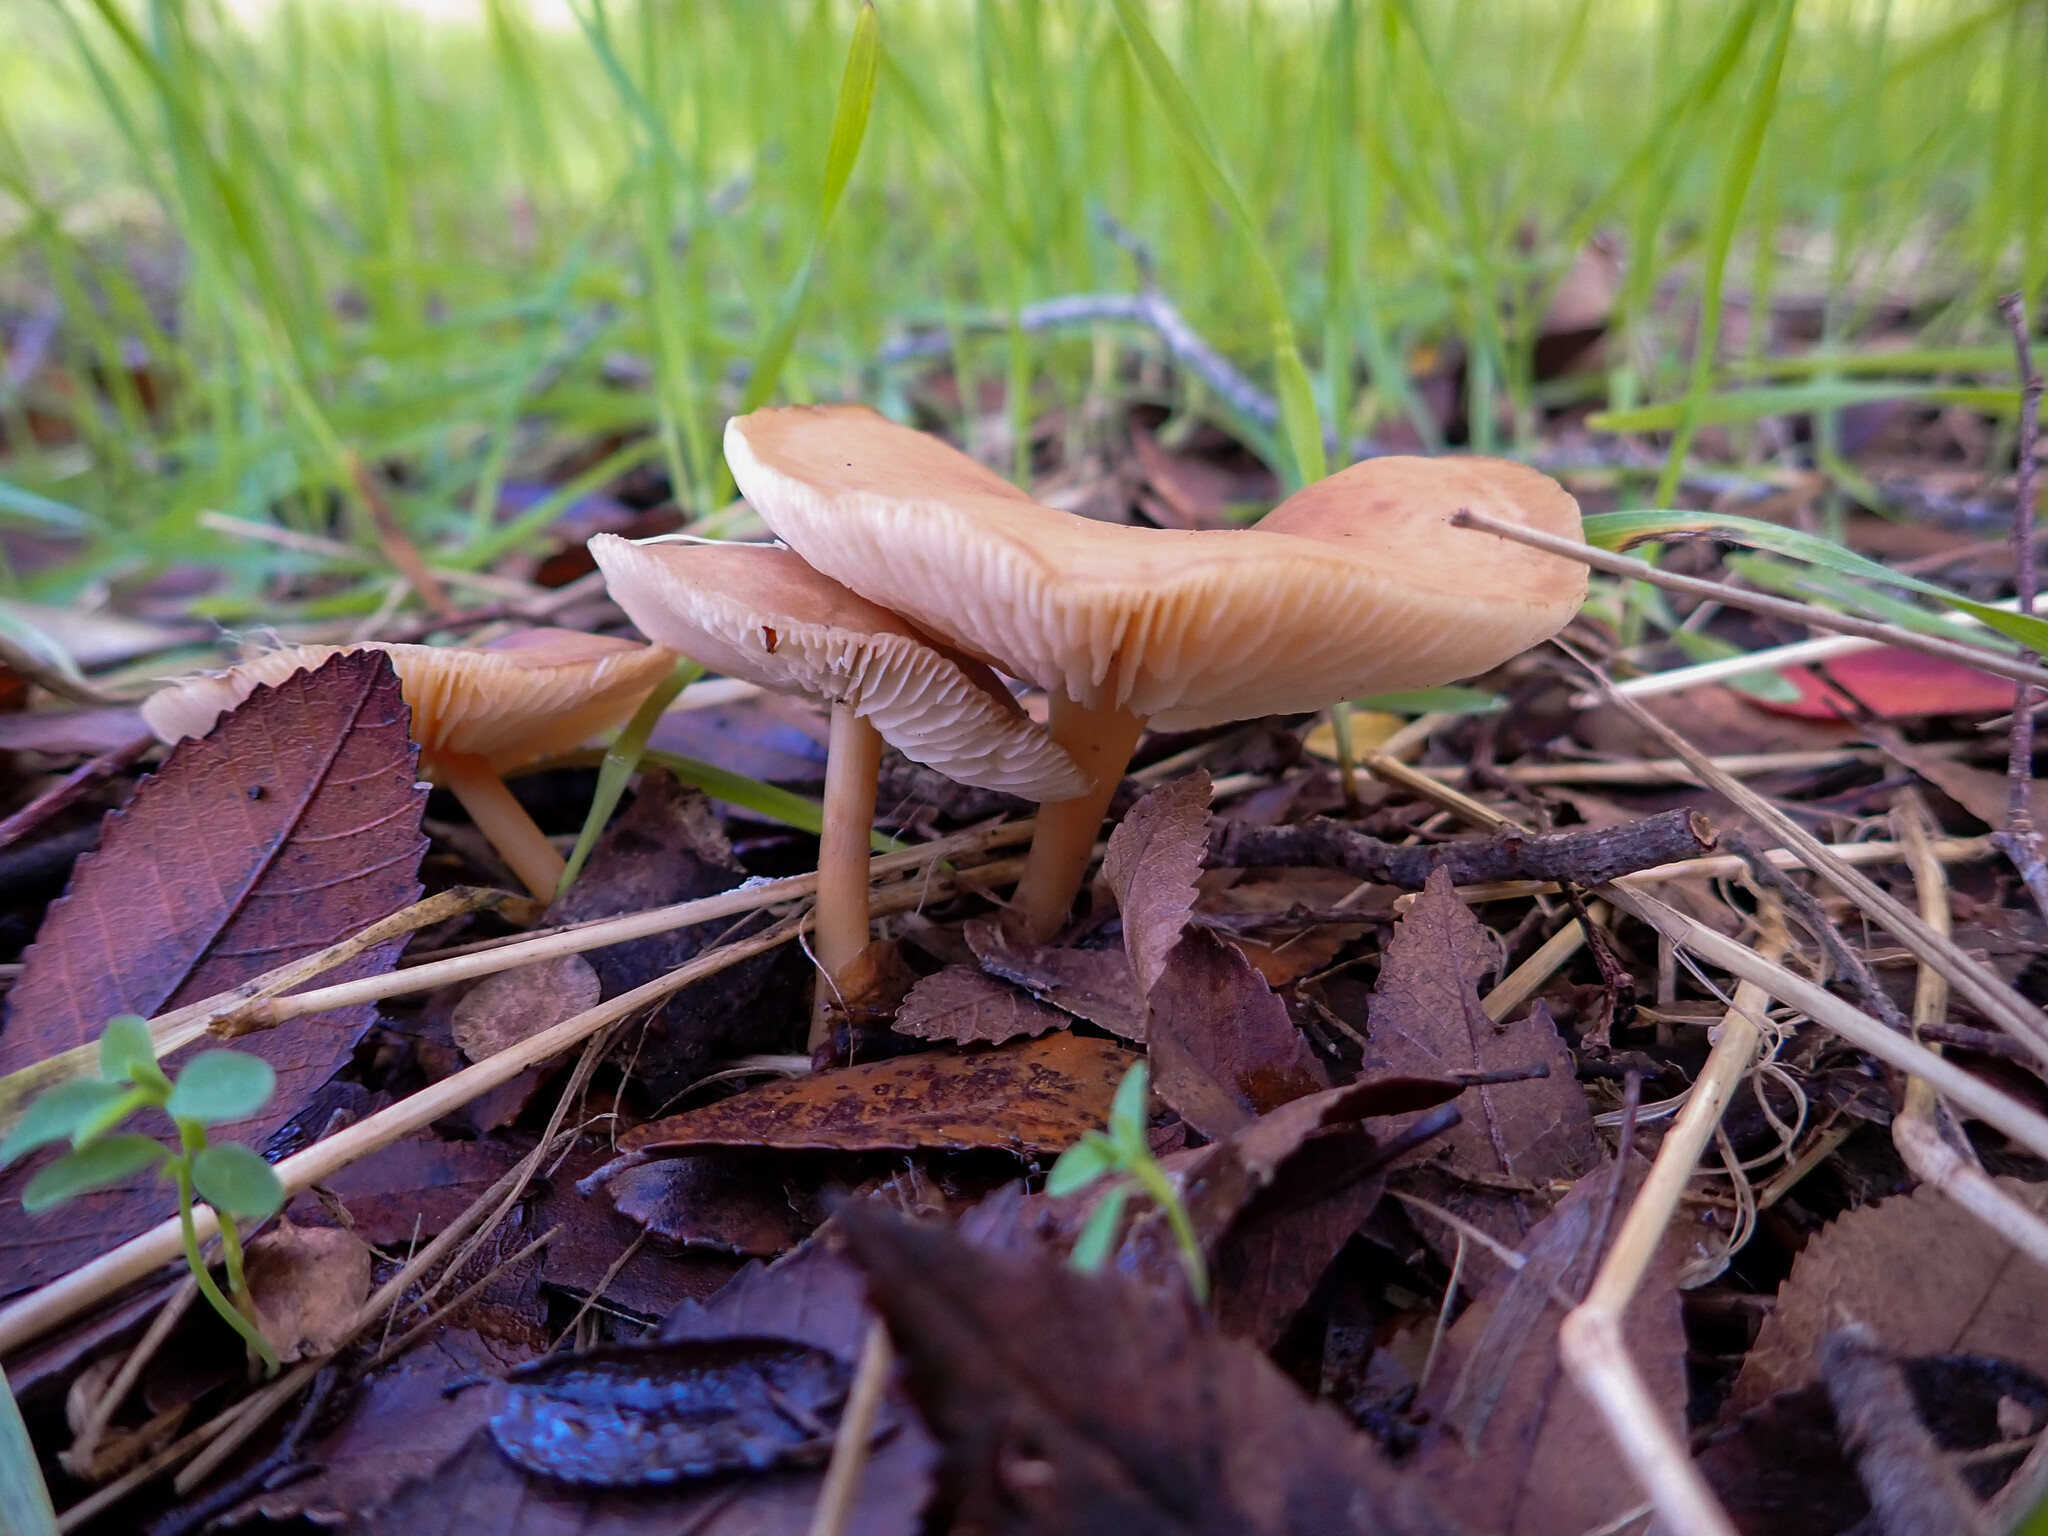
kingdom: Fungi
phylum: Basidiomycota
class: Agaricomycetes
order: Agaricales
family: Omphalotaceae
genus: Gymnopus
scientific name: Gymnopus dryophilus
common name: Penny top
